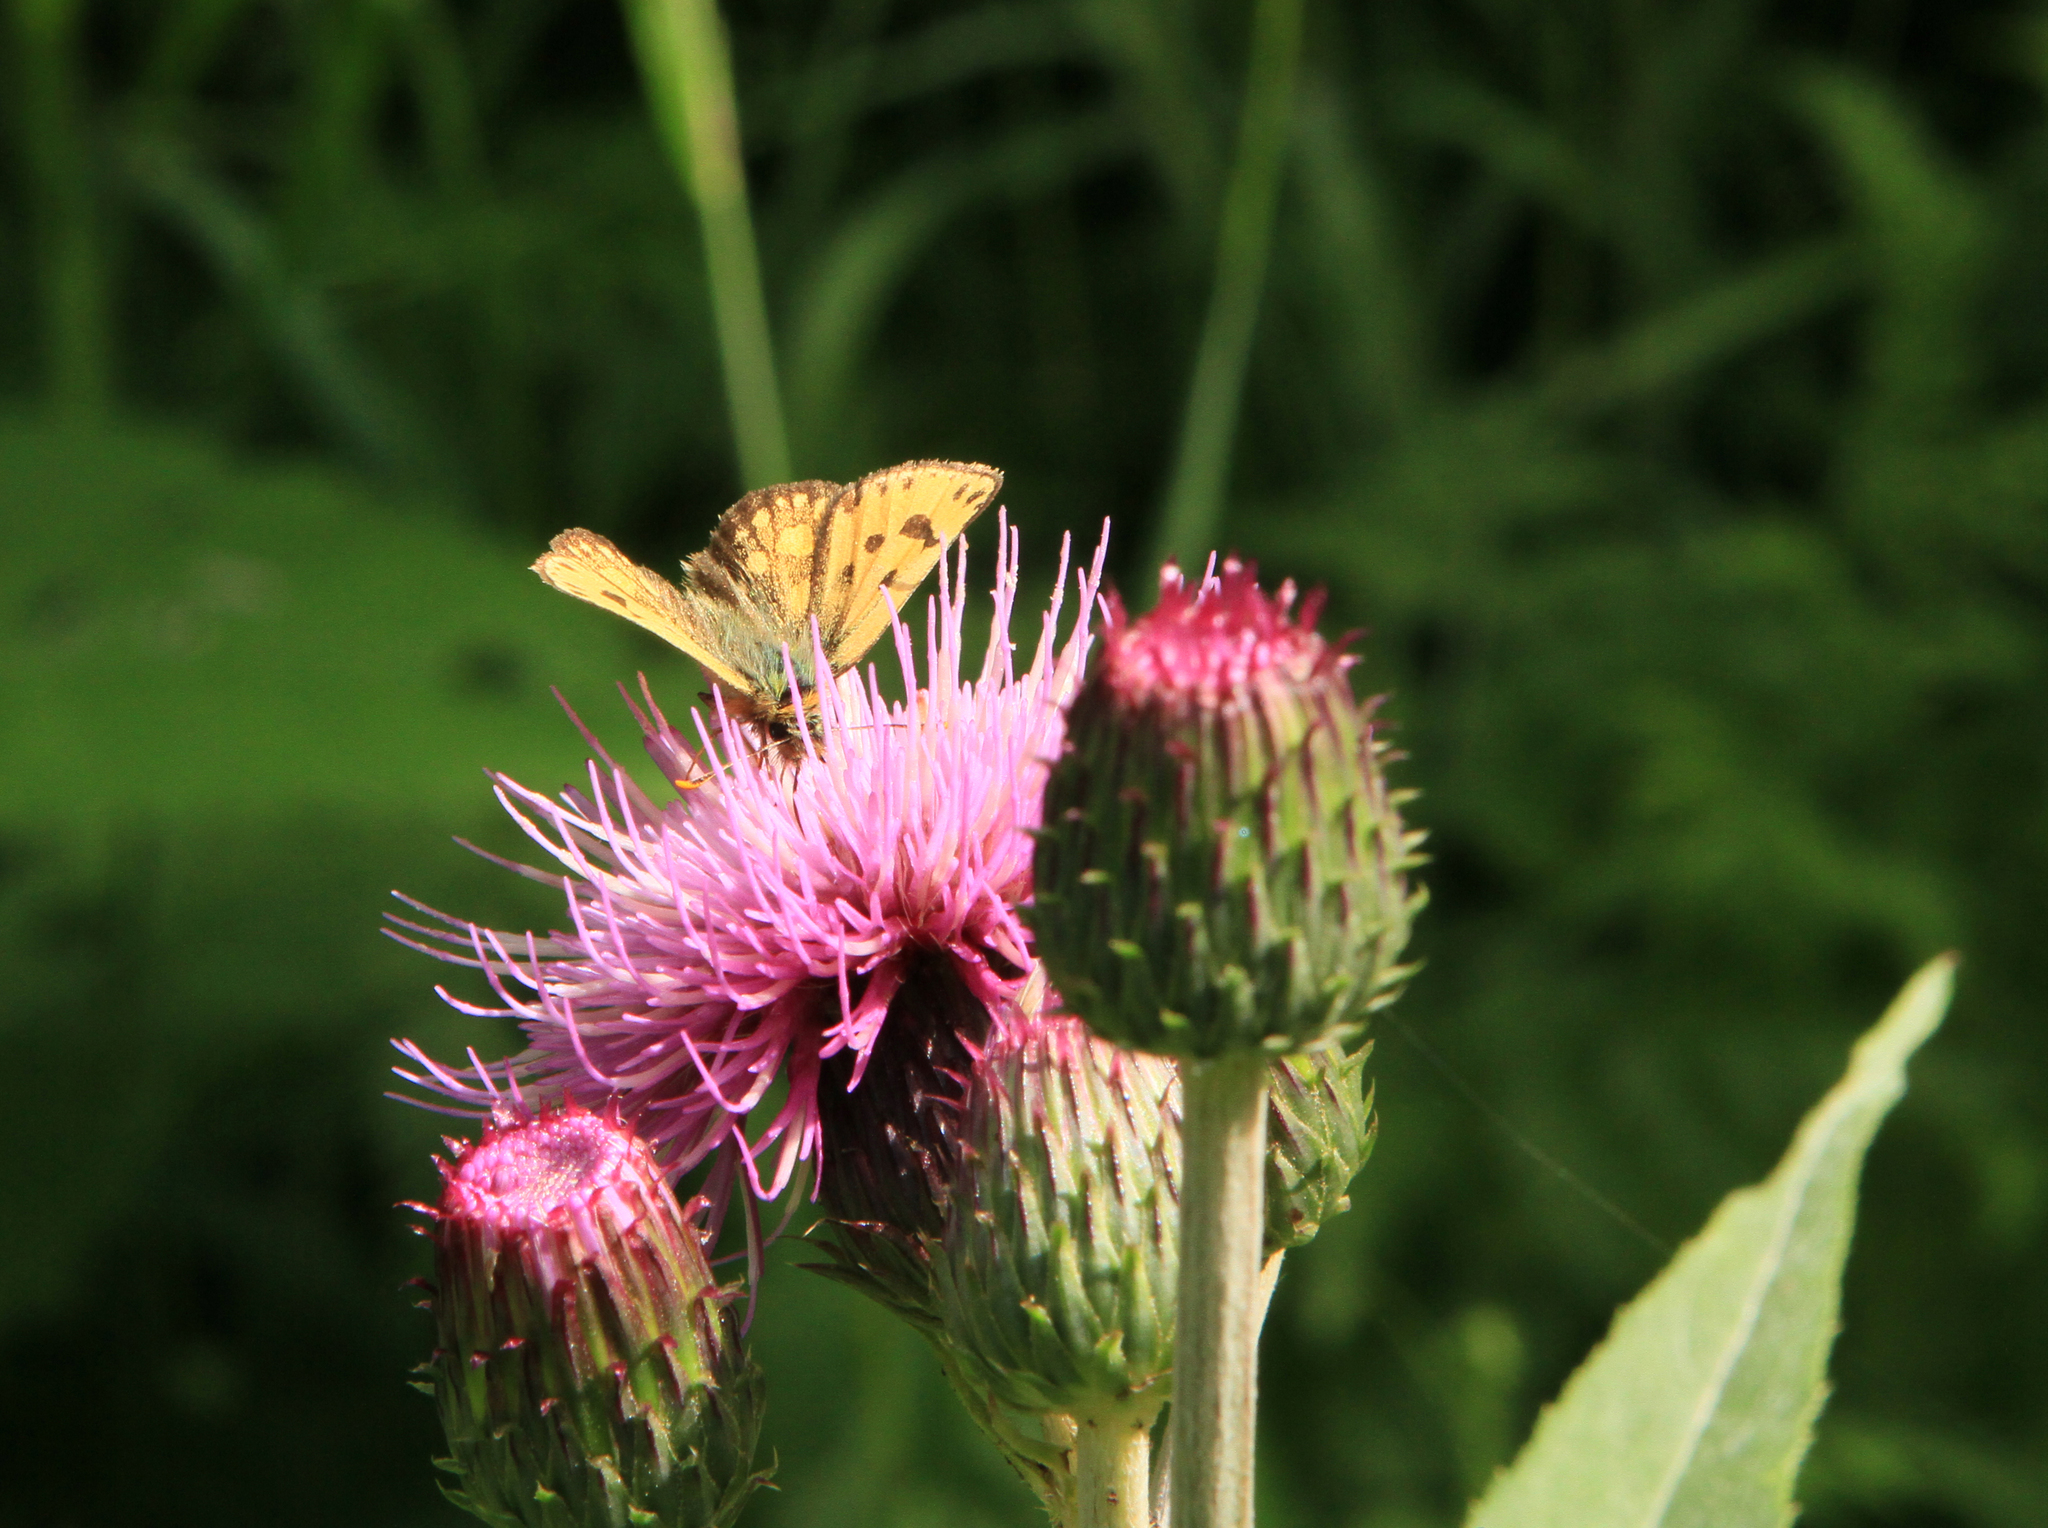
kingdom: Animalia
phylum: Arthropoda
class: Insecta
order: Lepidoptera
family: Hesperiidae
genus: Carterocephalus
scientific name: Carterocephalus silvicola
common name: Northern chequered skipper
